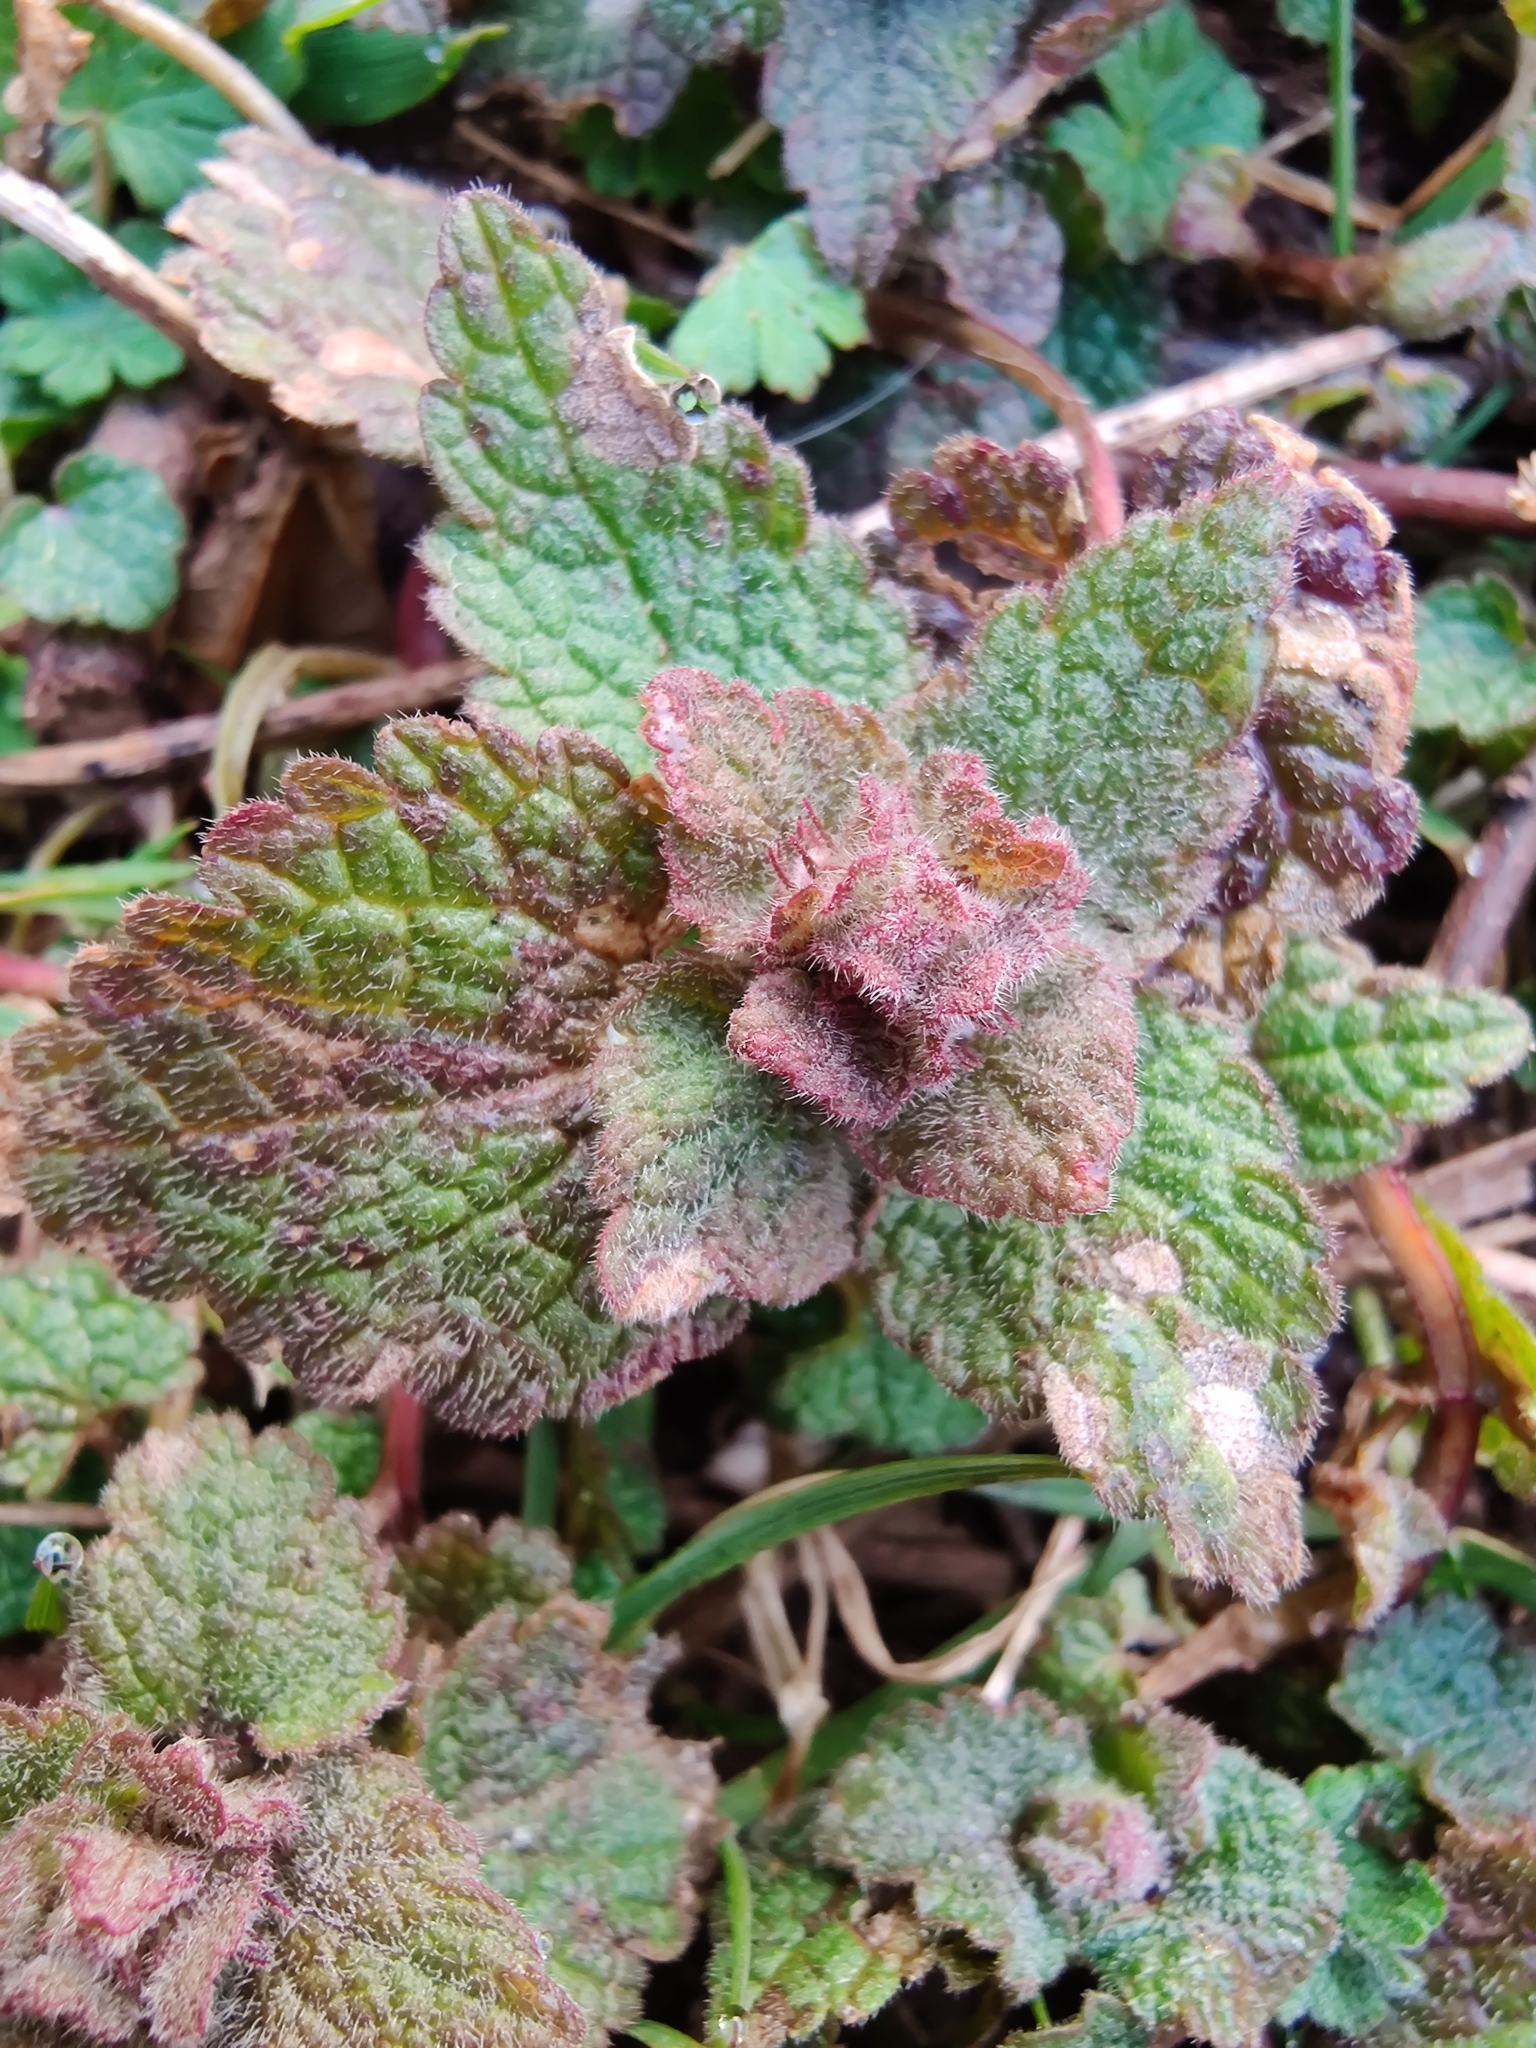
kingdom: Plantae
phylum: Tracheophyta
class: Magnoliopsida
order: Lamiales
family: Lamiaceae
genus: Lamium
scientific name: Lamium purpureum
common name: Red dead-nettle
